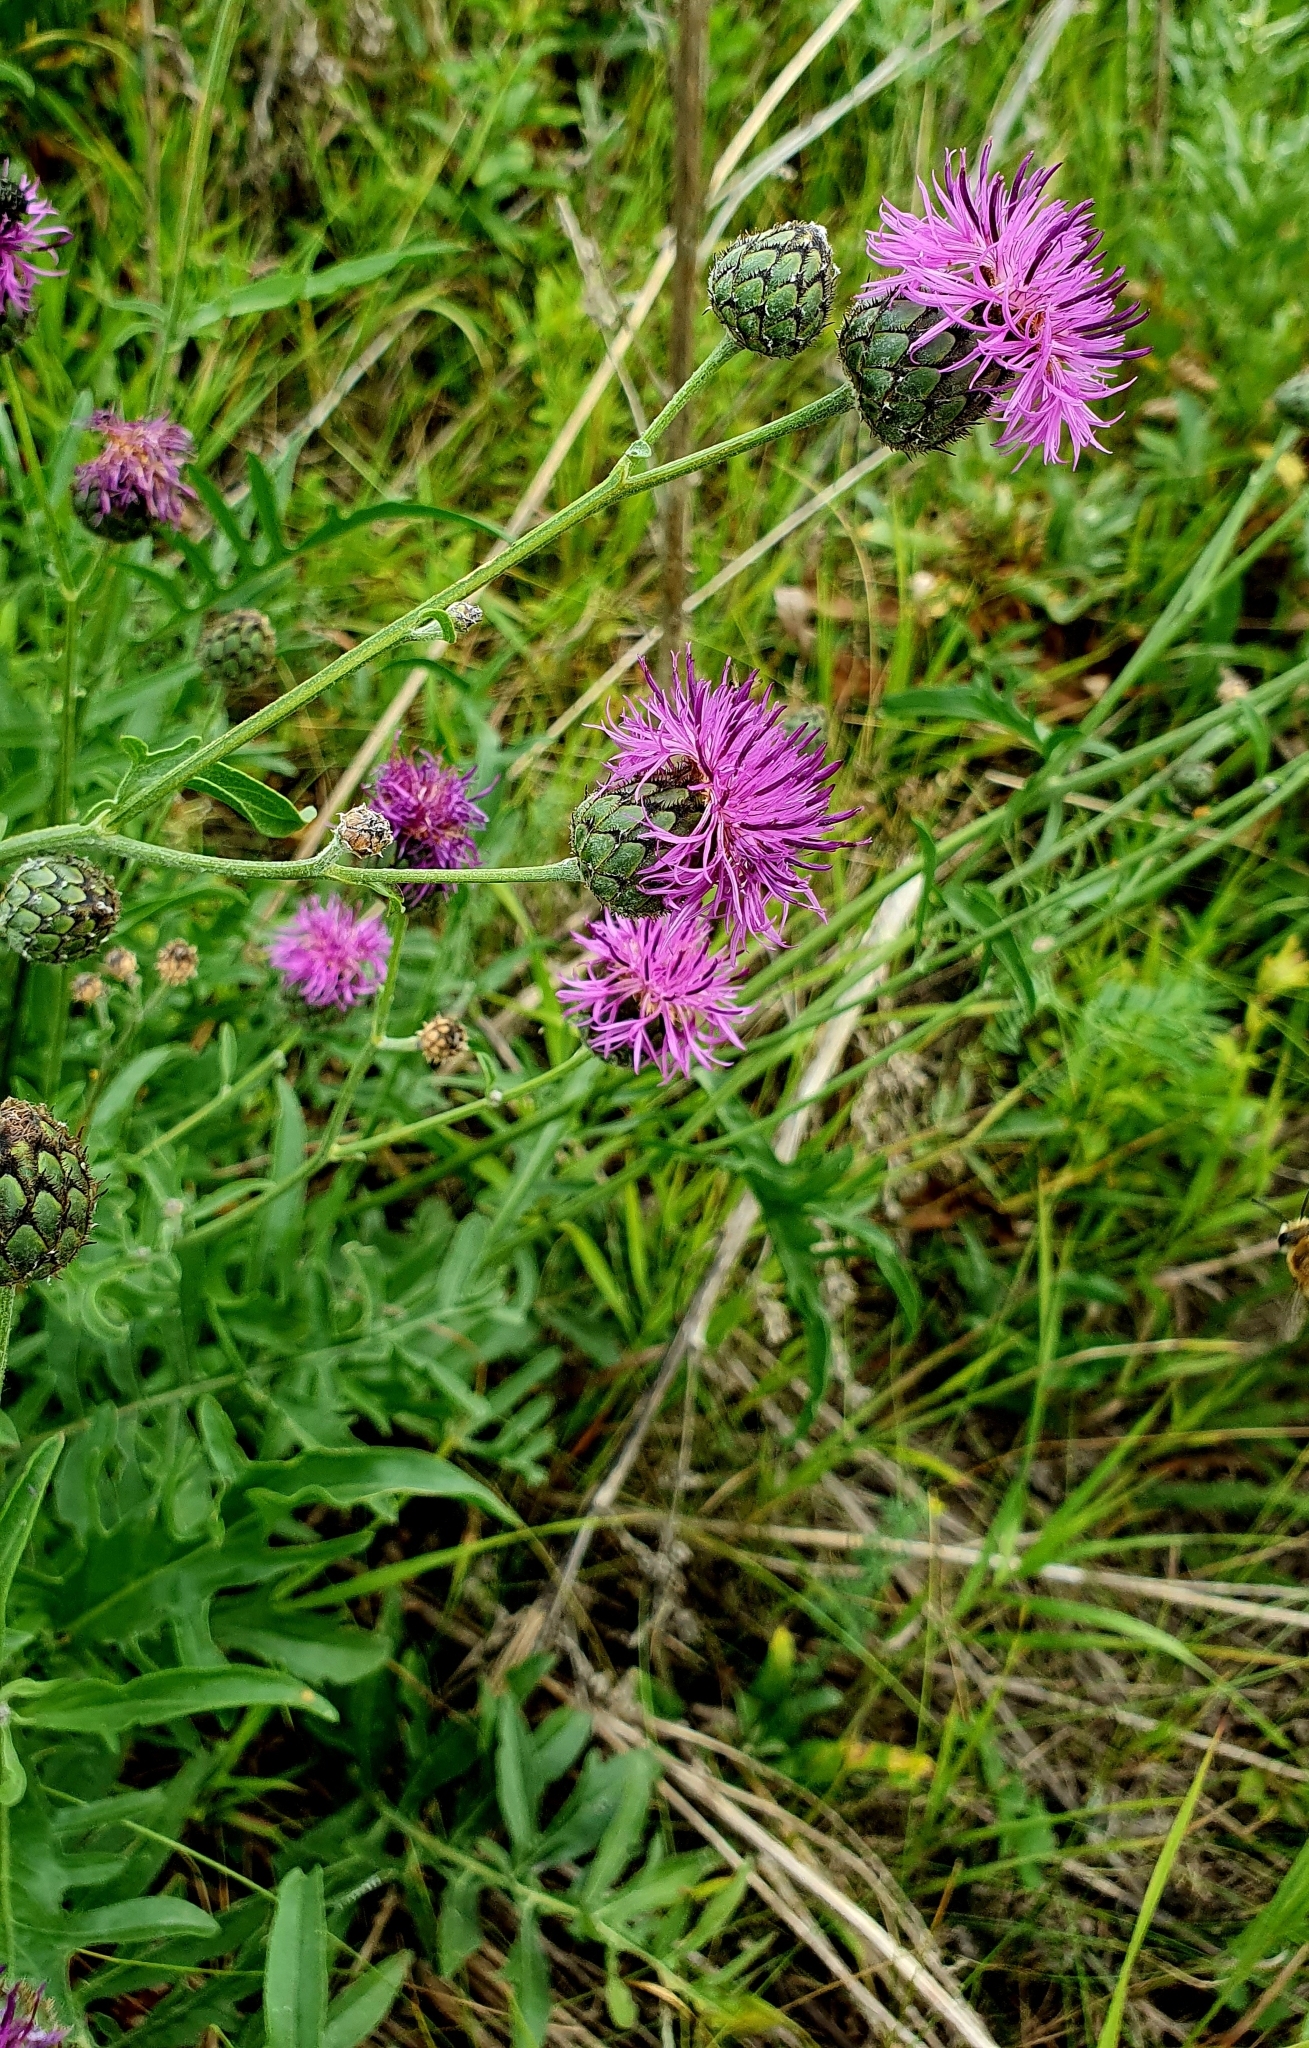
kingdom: Plantae
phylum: Tracheophyta
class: Magnoliopsida
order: Asterales
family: Asteraceae
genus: Centaurea
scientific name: Centaurea scabiosa
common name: Greater knapweed
